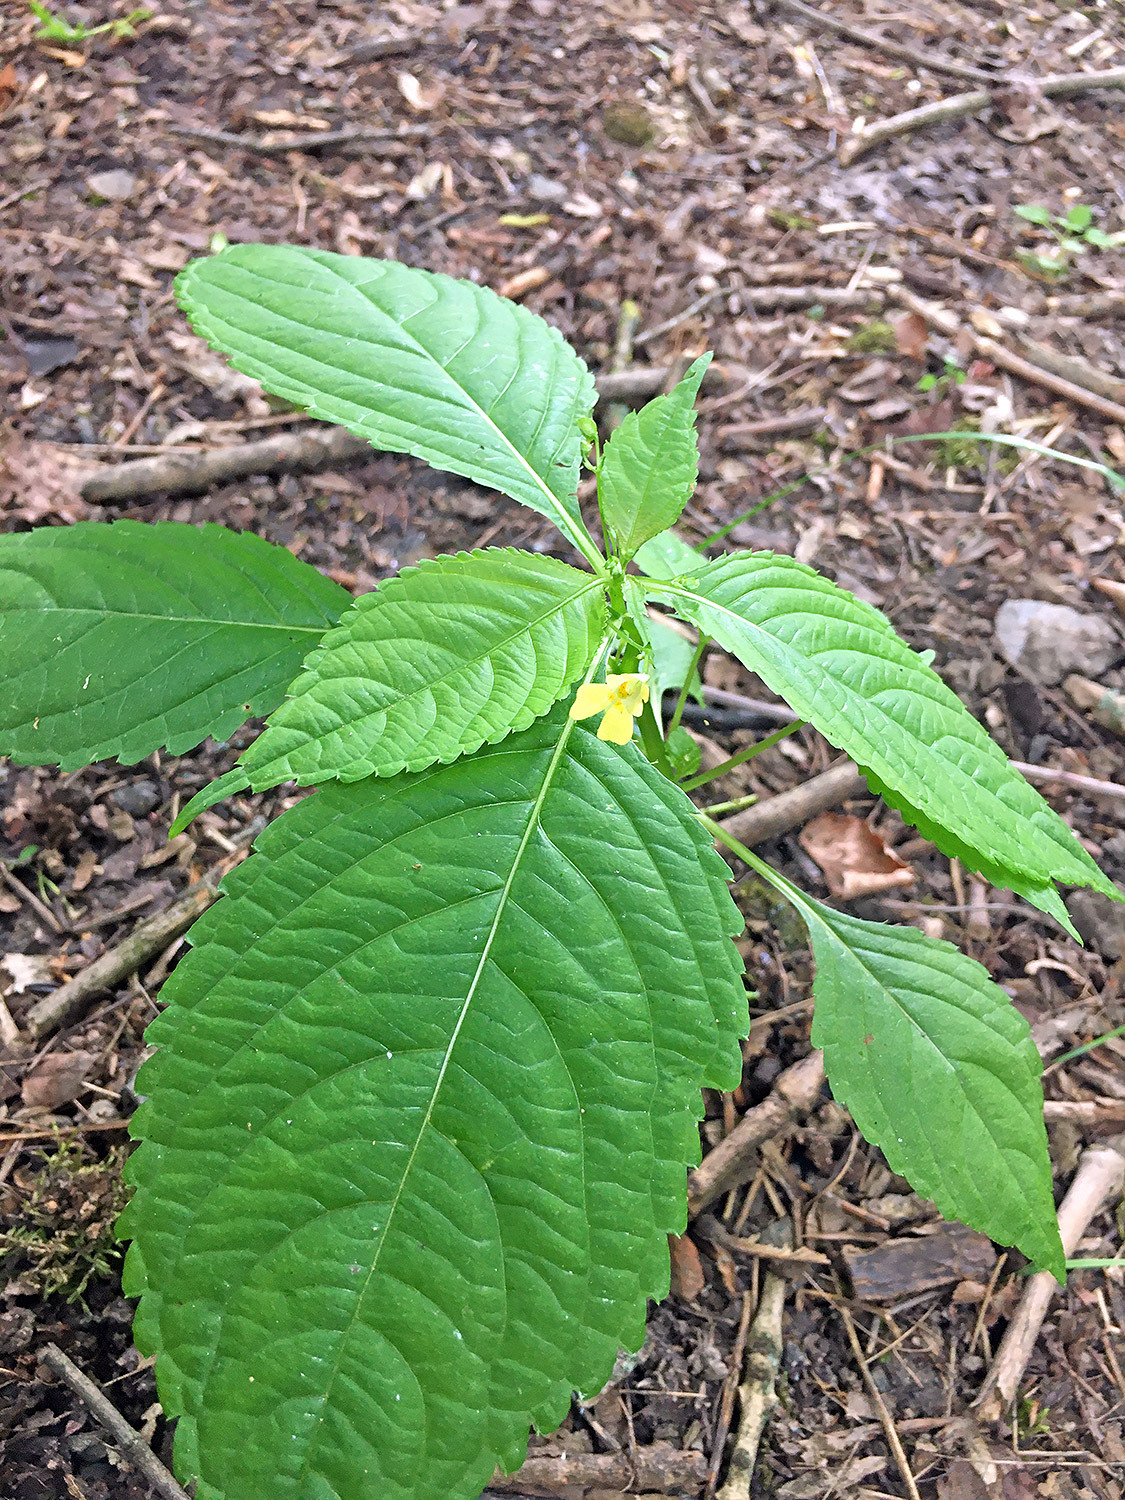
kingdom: Plantae
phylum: Tracheophyta
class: Magnoliopsida
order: Ericales
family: Balsaminaceae
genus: Impatiens
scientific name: Impatiens parviflora
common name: Small balsam
